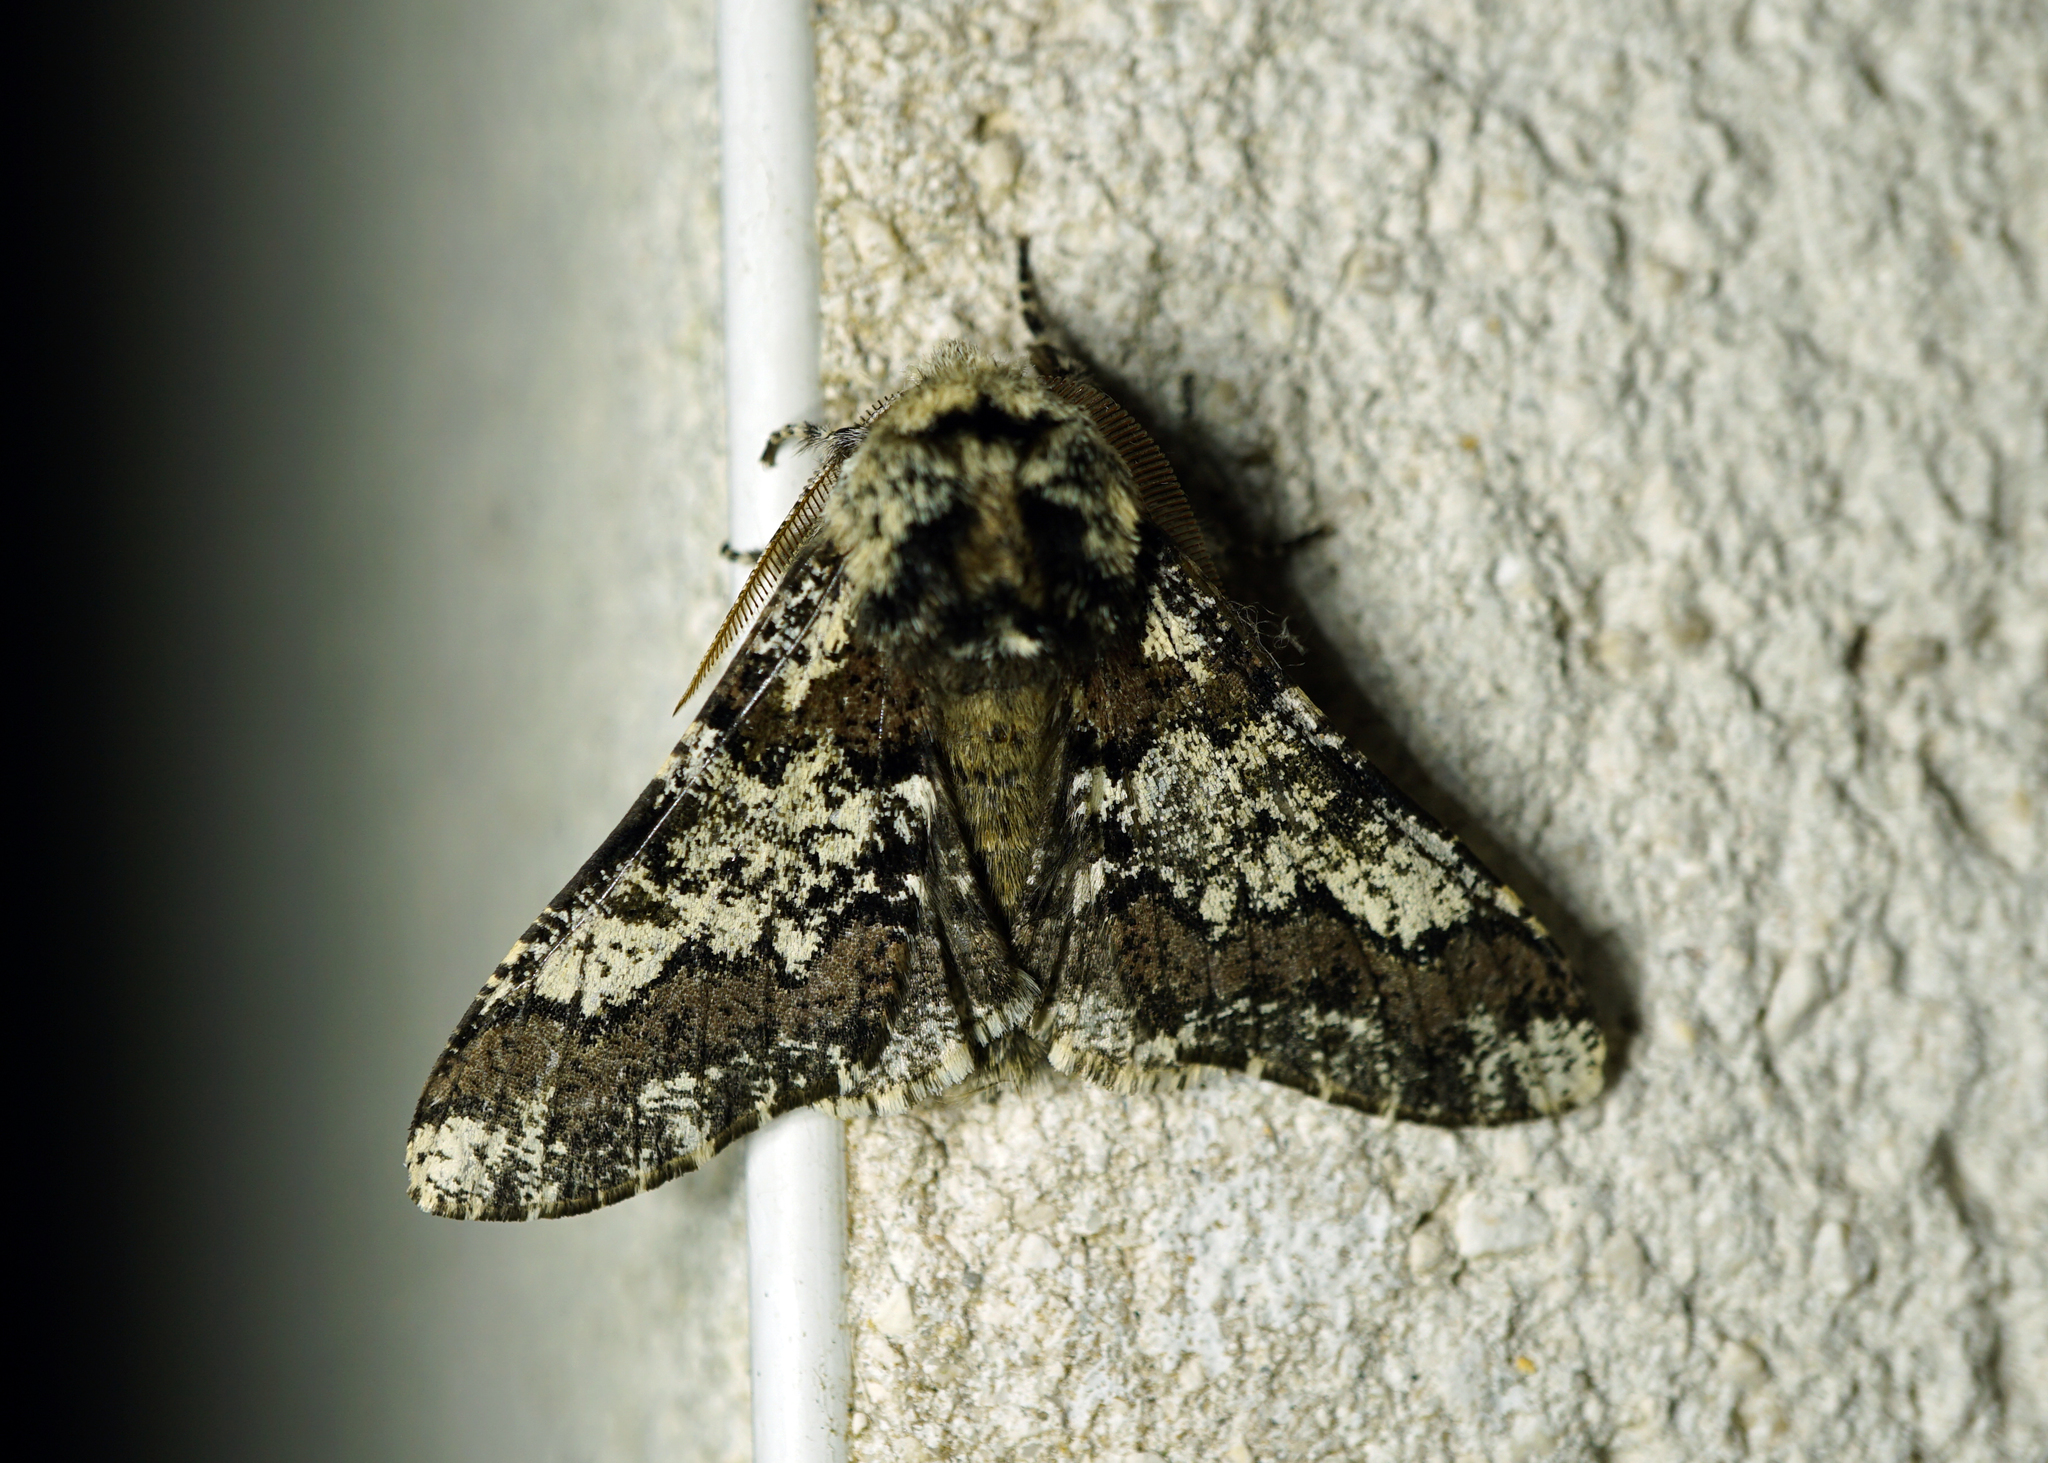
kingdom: Animalia
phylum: Arthropoda
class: Insecta
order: Lepidoptera
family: Geometridae
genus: Biston
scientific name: Biston strataria
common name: Oak beauty
